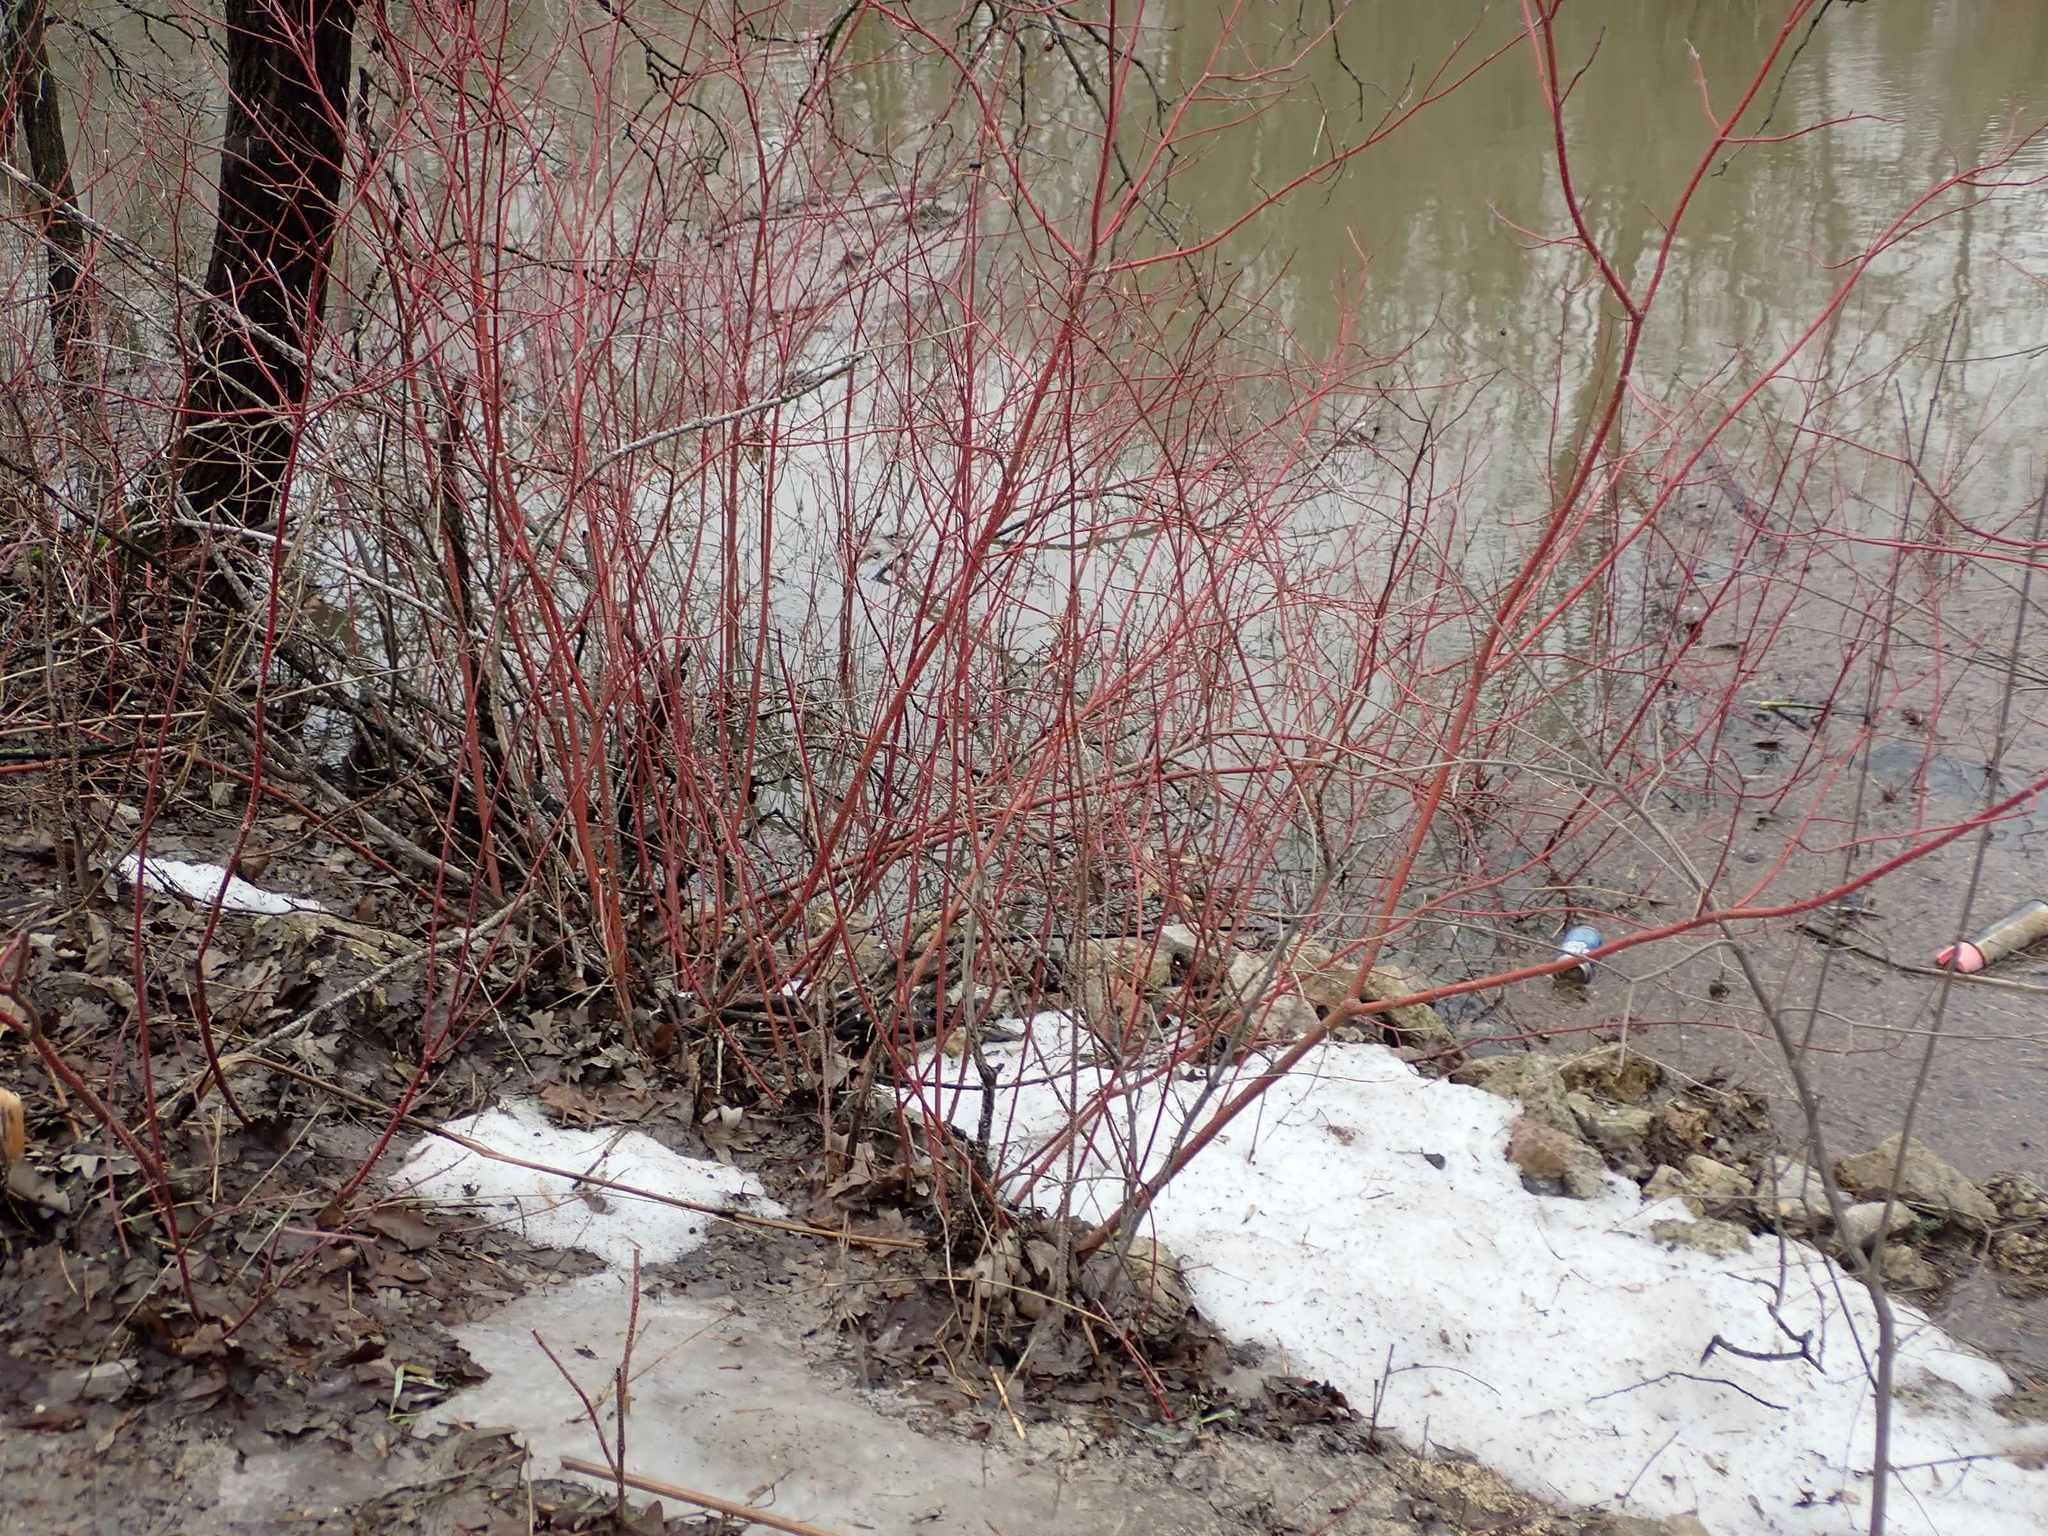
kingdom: Plantae
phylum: Tracheophyta
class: Magnoliopsida
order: Cornales
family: Cornaceae
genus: Cornus
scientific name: Cornus sericea
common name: Red-osier dogwood
